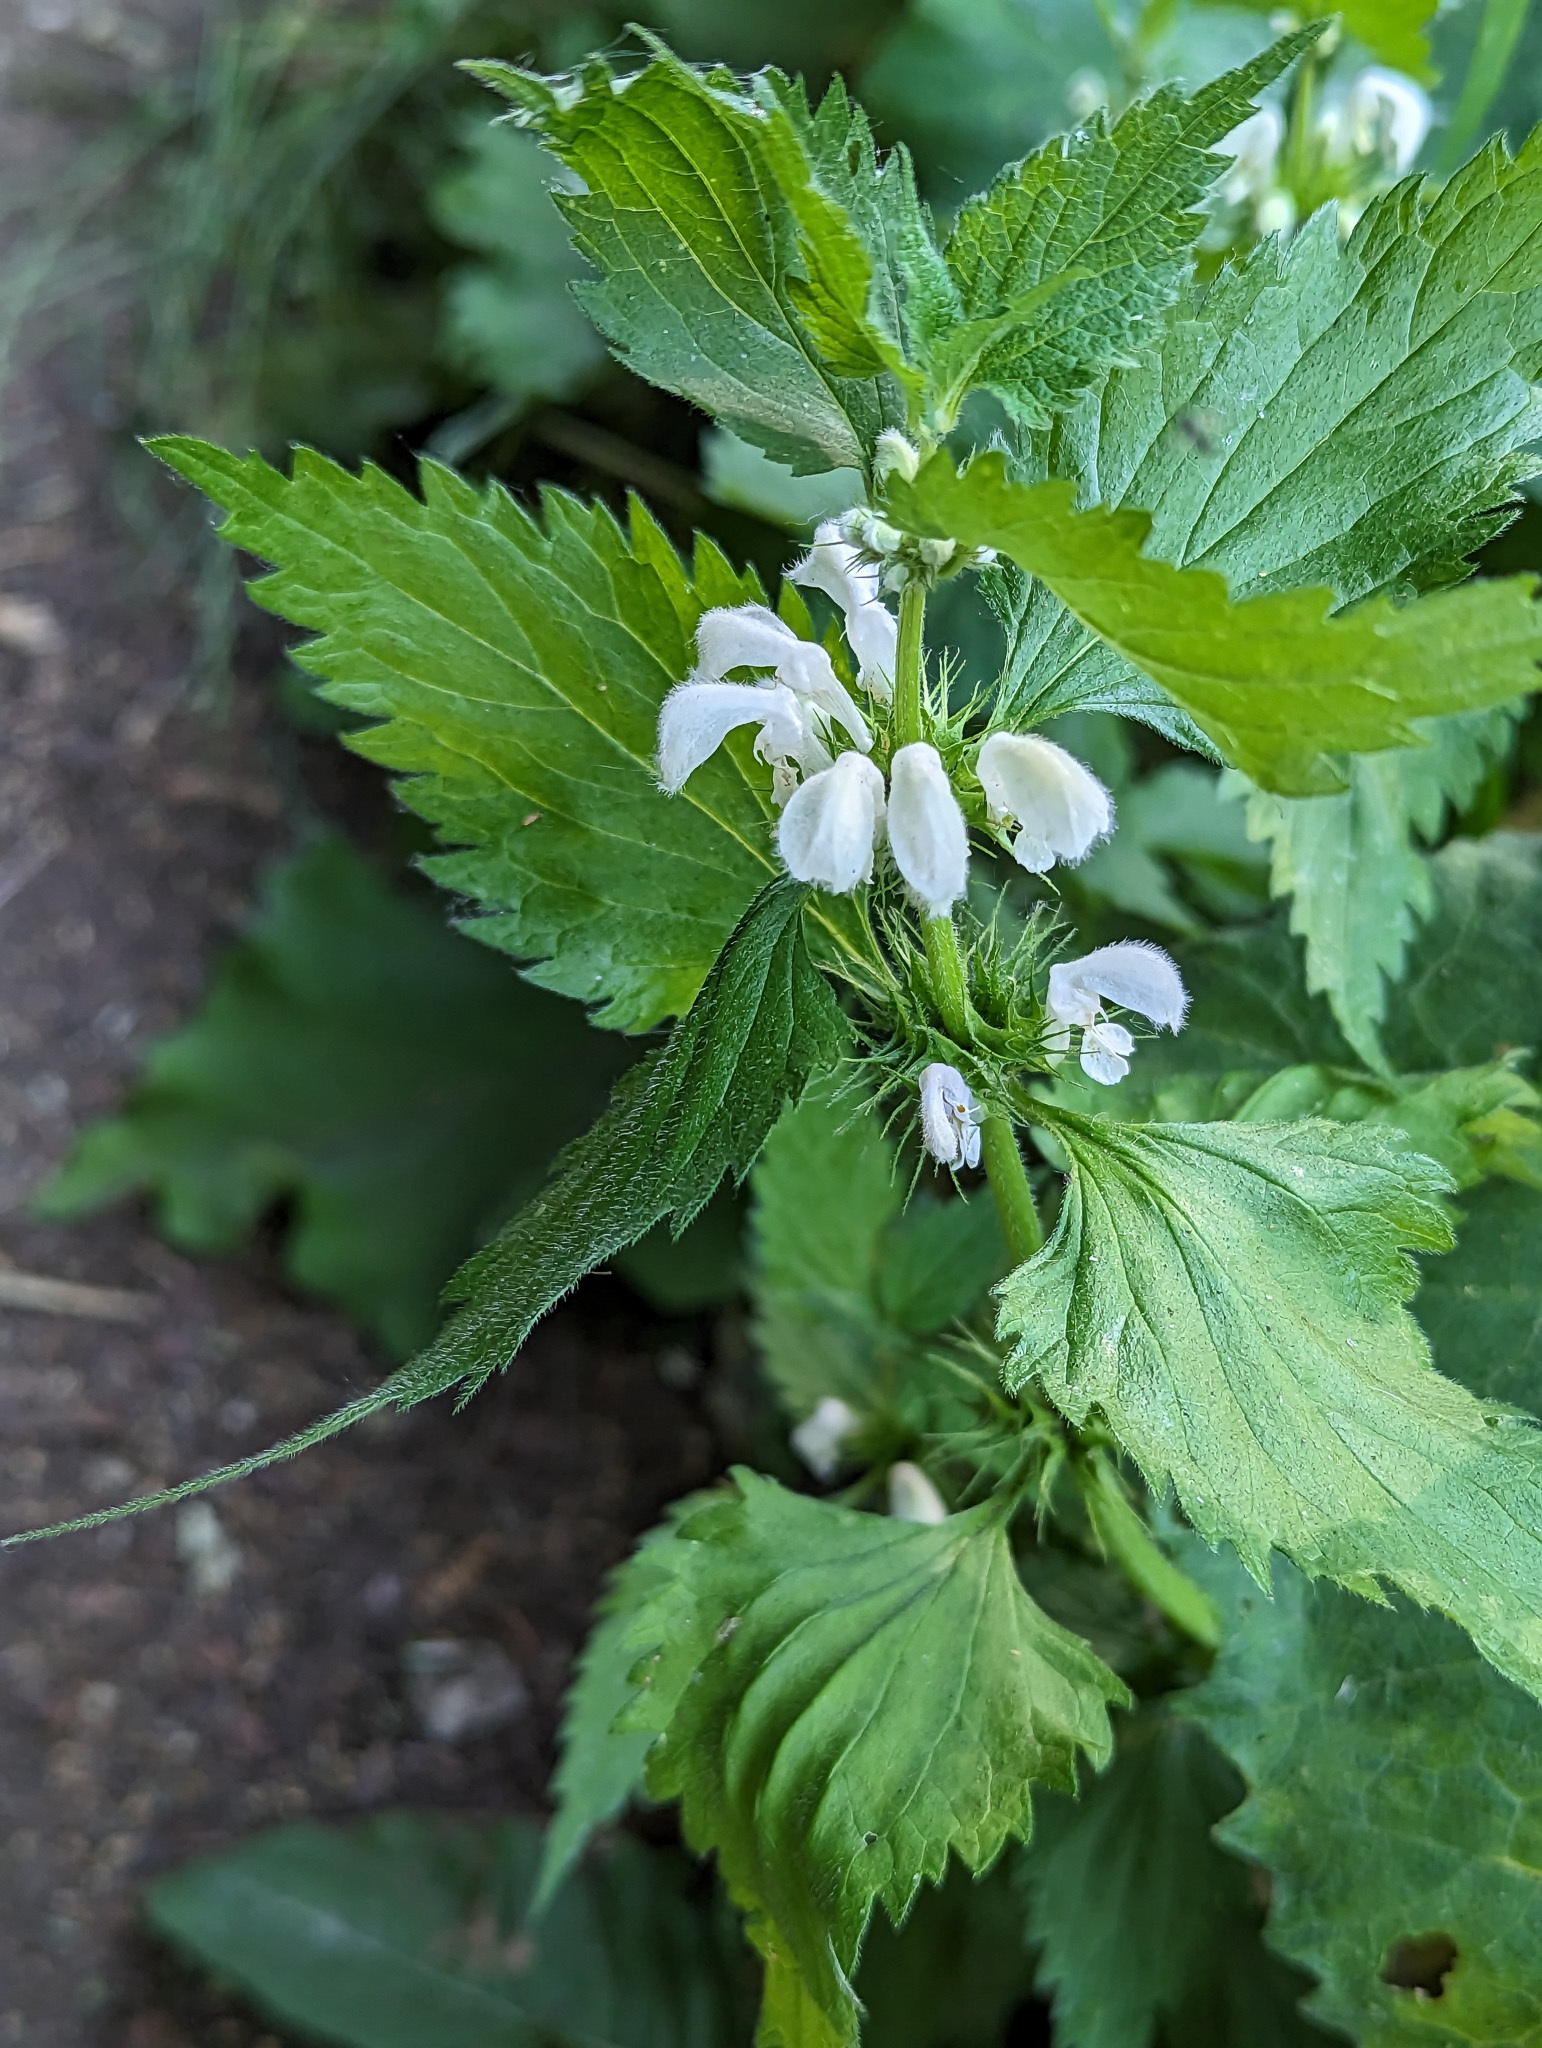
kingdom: Plantae
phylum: Tracheophyta
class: Magnoliopsida
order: Lamiales
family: Lamiaceae
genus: Lamium
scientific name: Lamium album
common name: White dead-nettle
